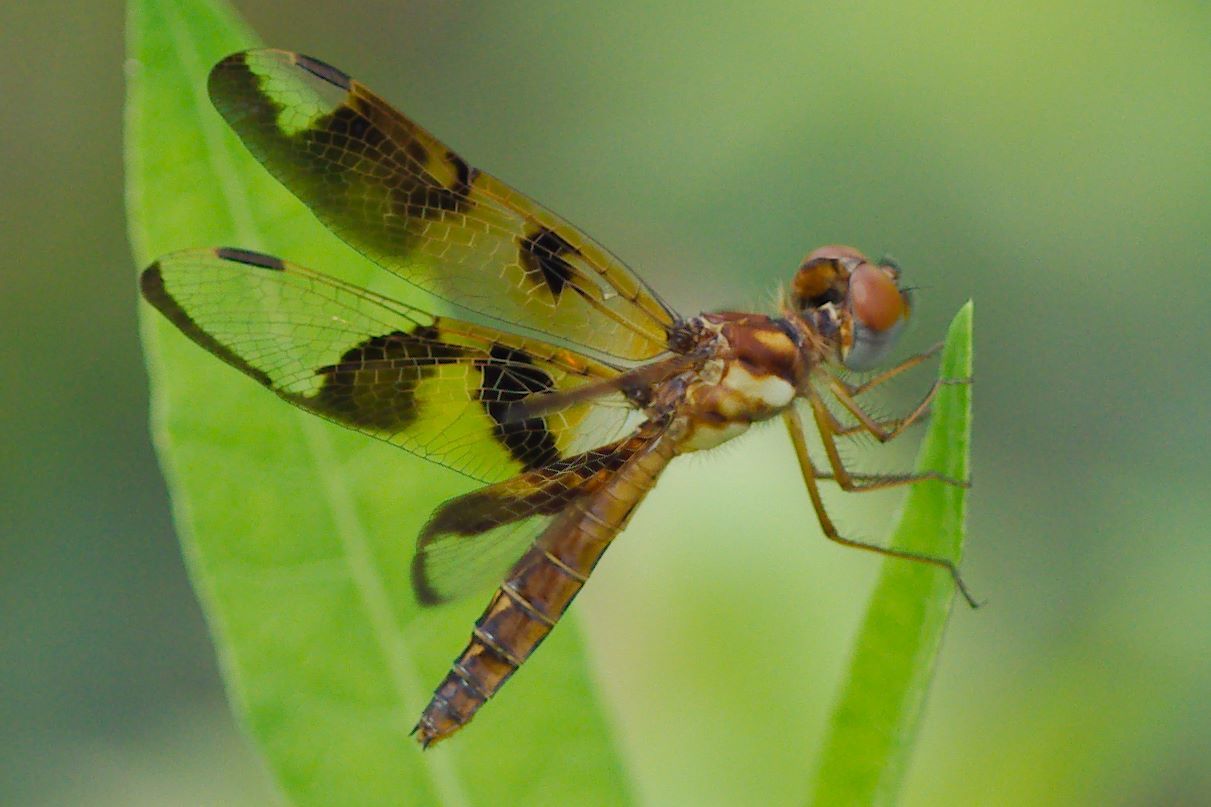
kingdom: Animalia
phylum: Arthropoda
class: Insecta
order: Odonata
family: Libellulidae
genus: Perithemis
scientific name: Perithemis tenera
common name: Eastern amberwing
